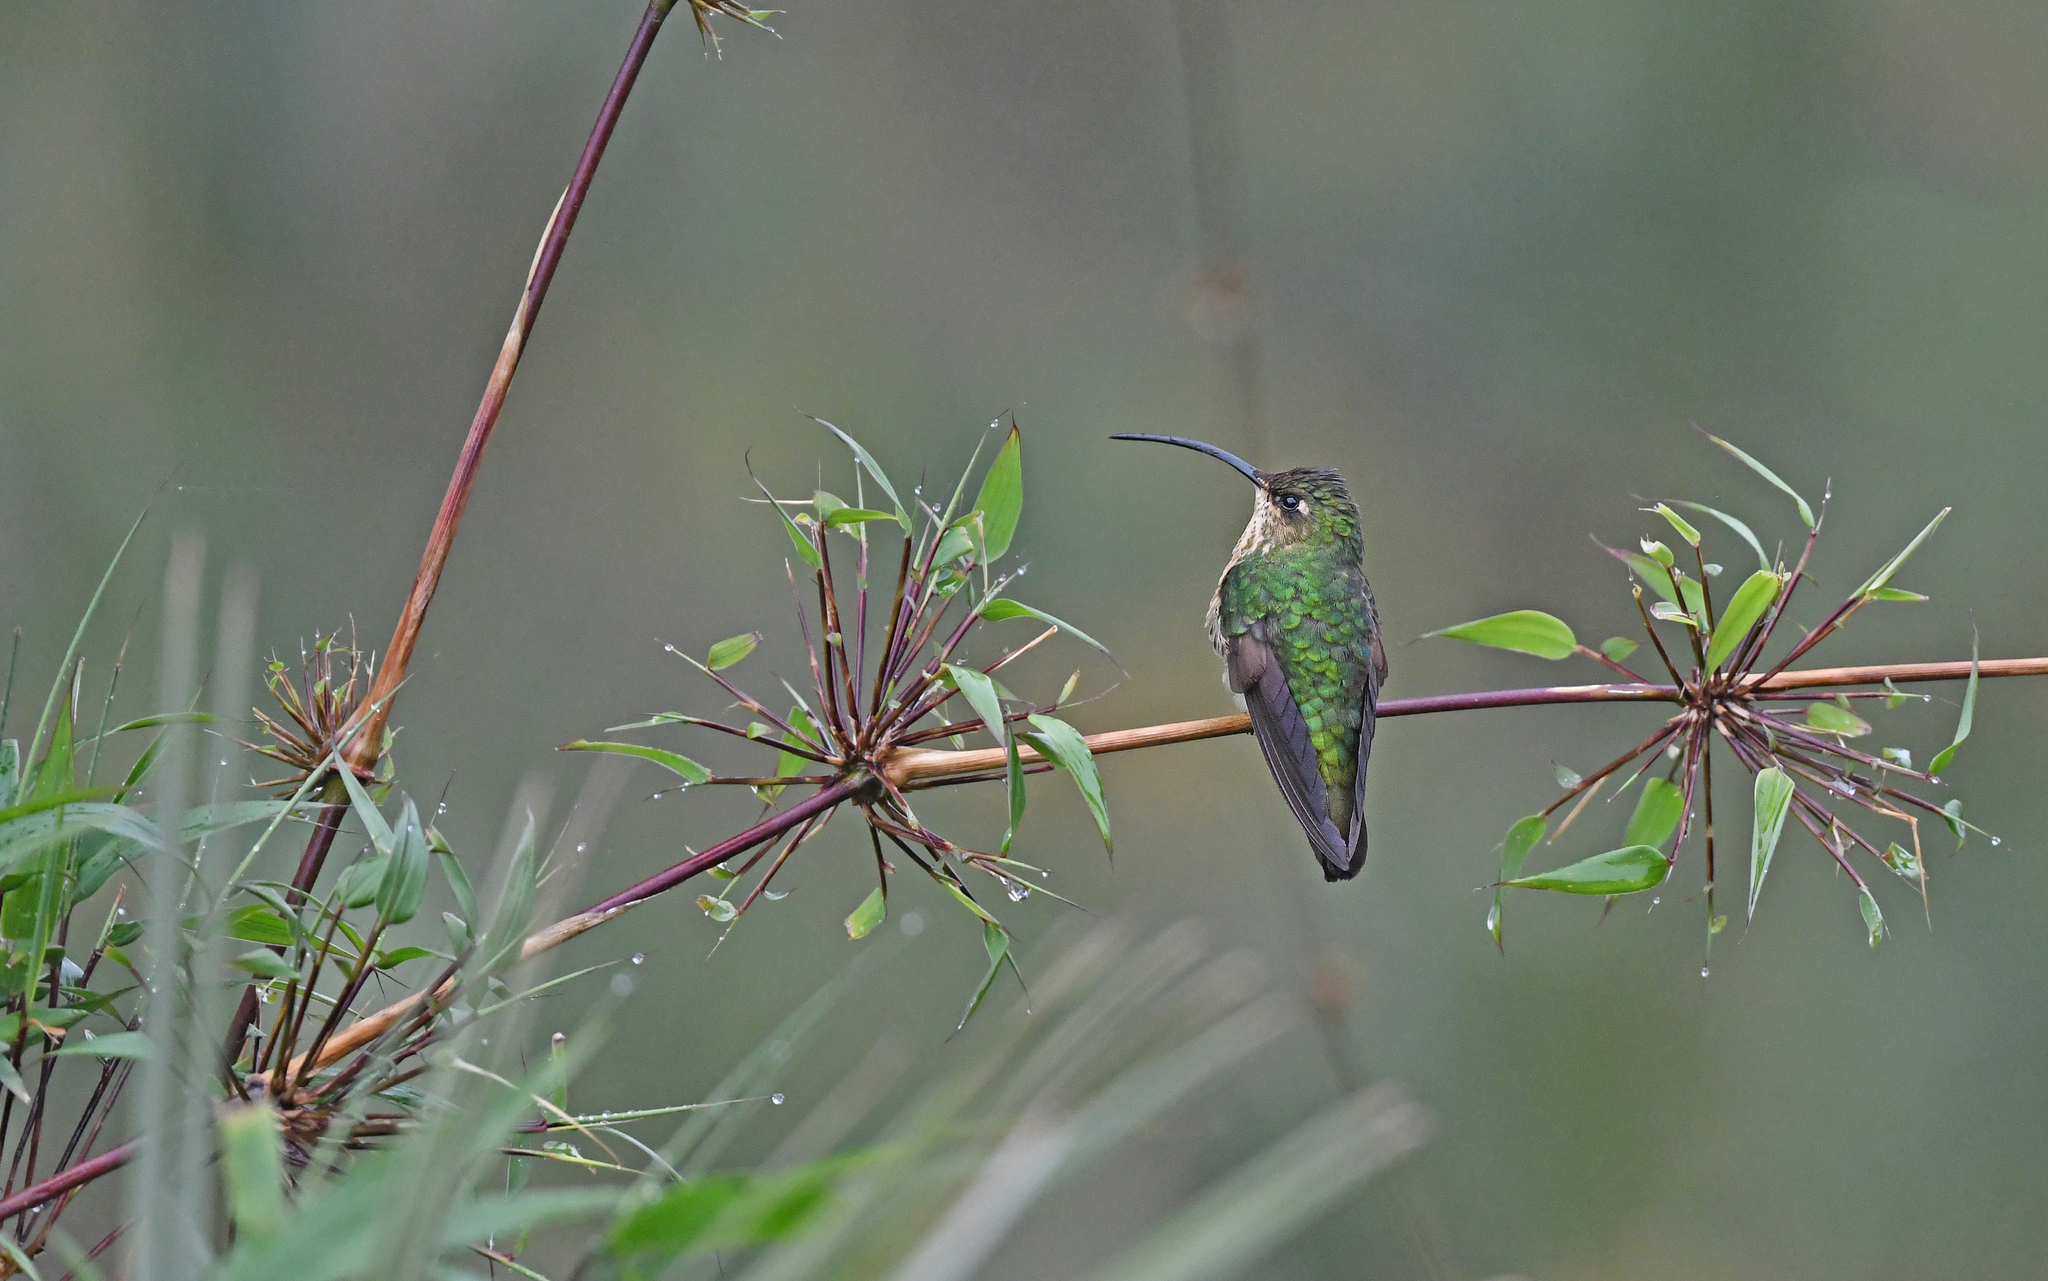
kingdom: Animalia
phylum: Chordata
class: Aves
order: Apodiformes
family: Trochilidae
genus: Lafresnaya
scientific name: Lafresnaya lafresnayi
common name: Mountain velvetbreast
